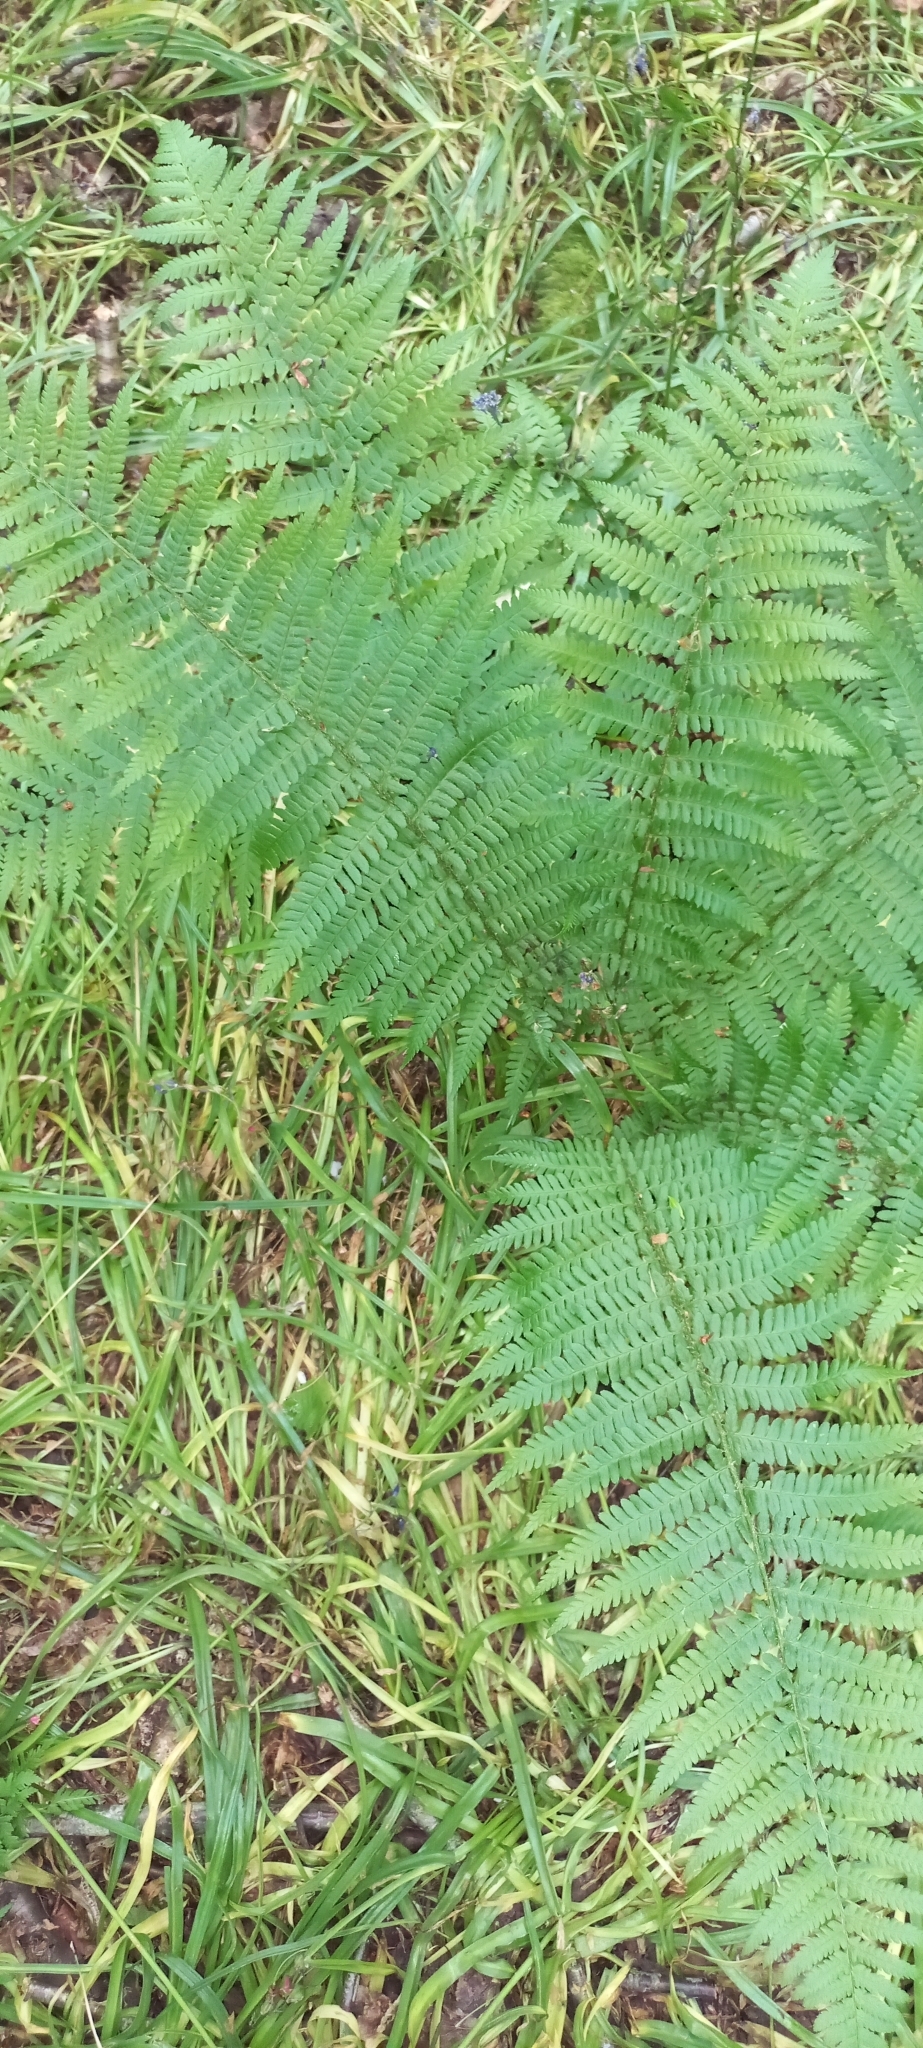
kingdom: Plantae
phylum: Tracheophyta
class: Polypodiopsida
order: Polypodiales
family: Dryopteridaceae
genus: Dryopteris
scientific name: Dryopteris filix-mas
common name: Male fern
